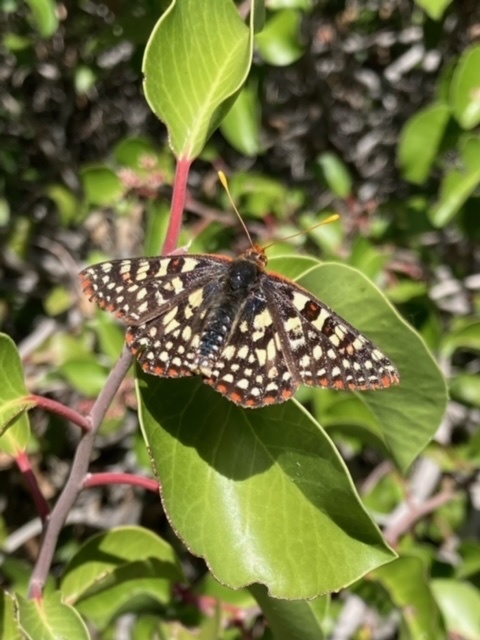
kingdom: Animalia
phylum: Arthropoda
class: Insecta
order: Lepidoptera
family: Nymphalidae
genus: Occidryas
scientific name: Occidryas chalcedona
